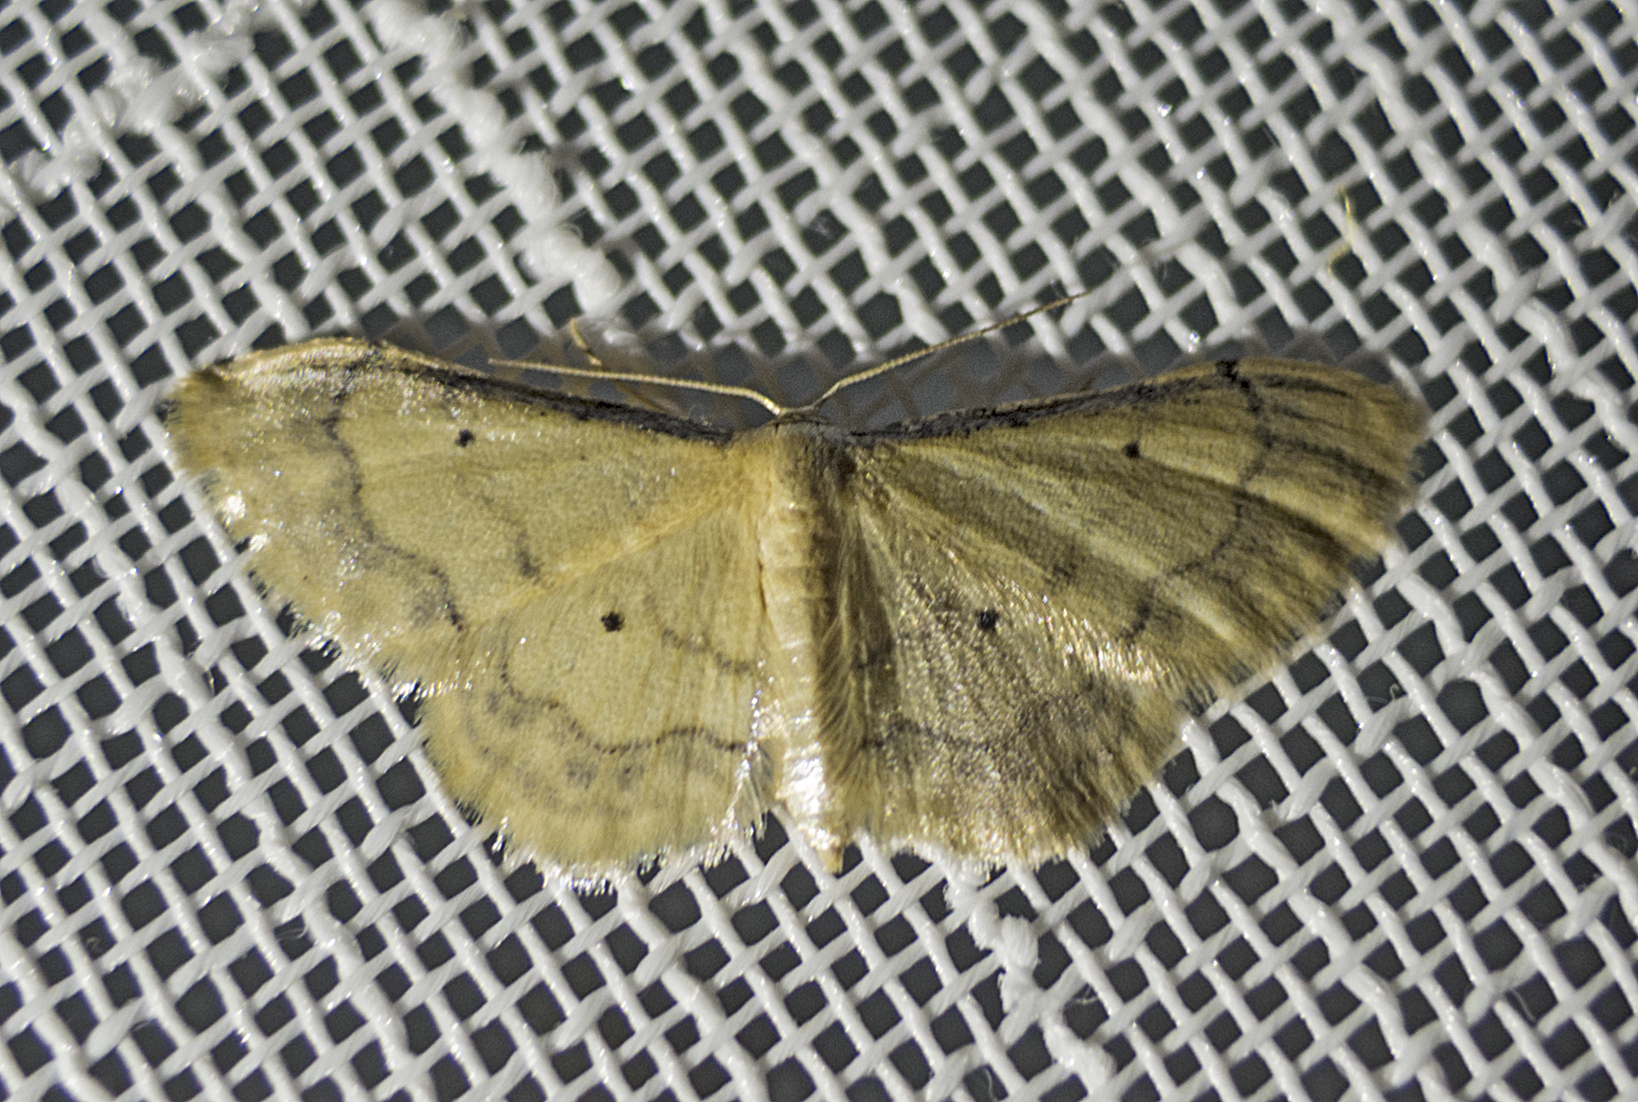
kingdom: Animalia
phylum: Arthropoda
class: Insecta
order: Lepidoptera
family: Geometridae
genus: Idaea
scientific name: Idaea politaria
